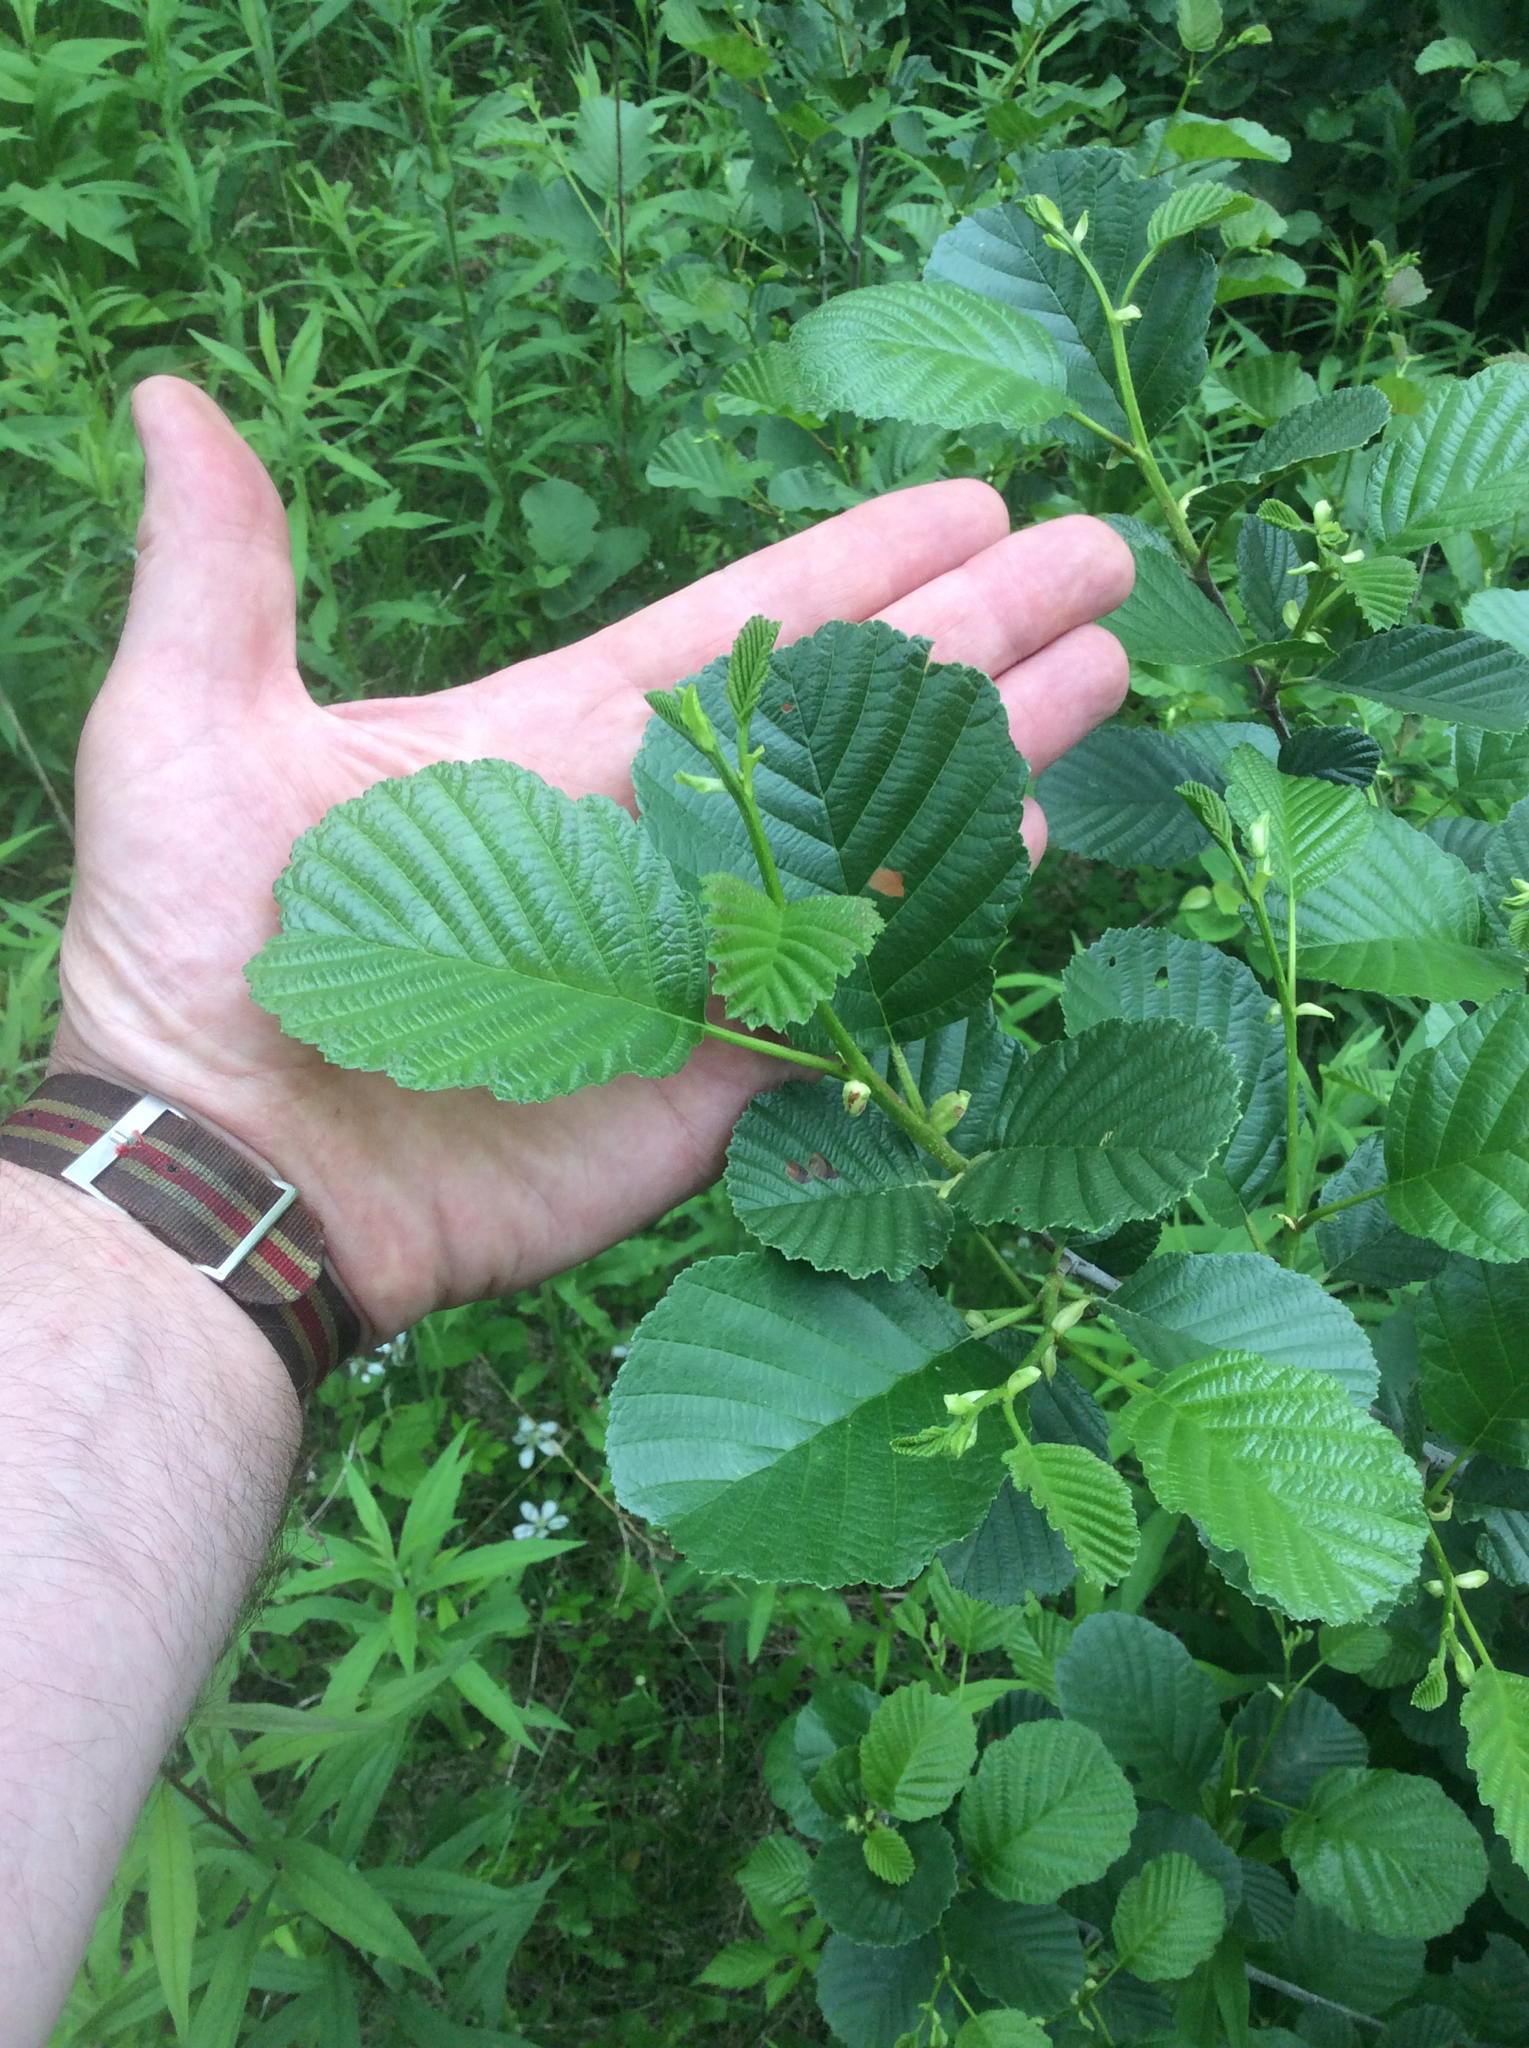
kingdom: Plantae
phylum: Tracheophyta
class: Magnoliopsida
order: Fagales
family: Betulaceae
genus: Alnus
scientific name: Alnus glutinosa
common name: Black alder
